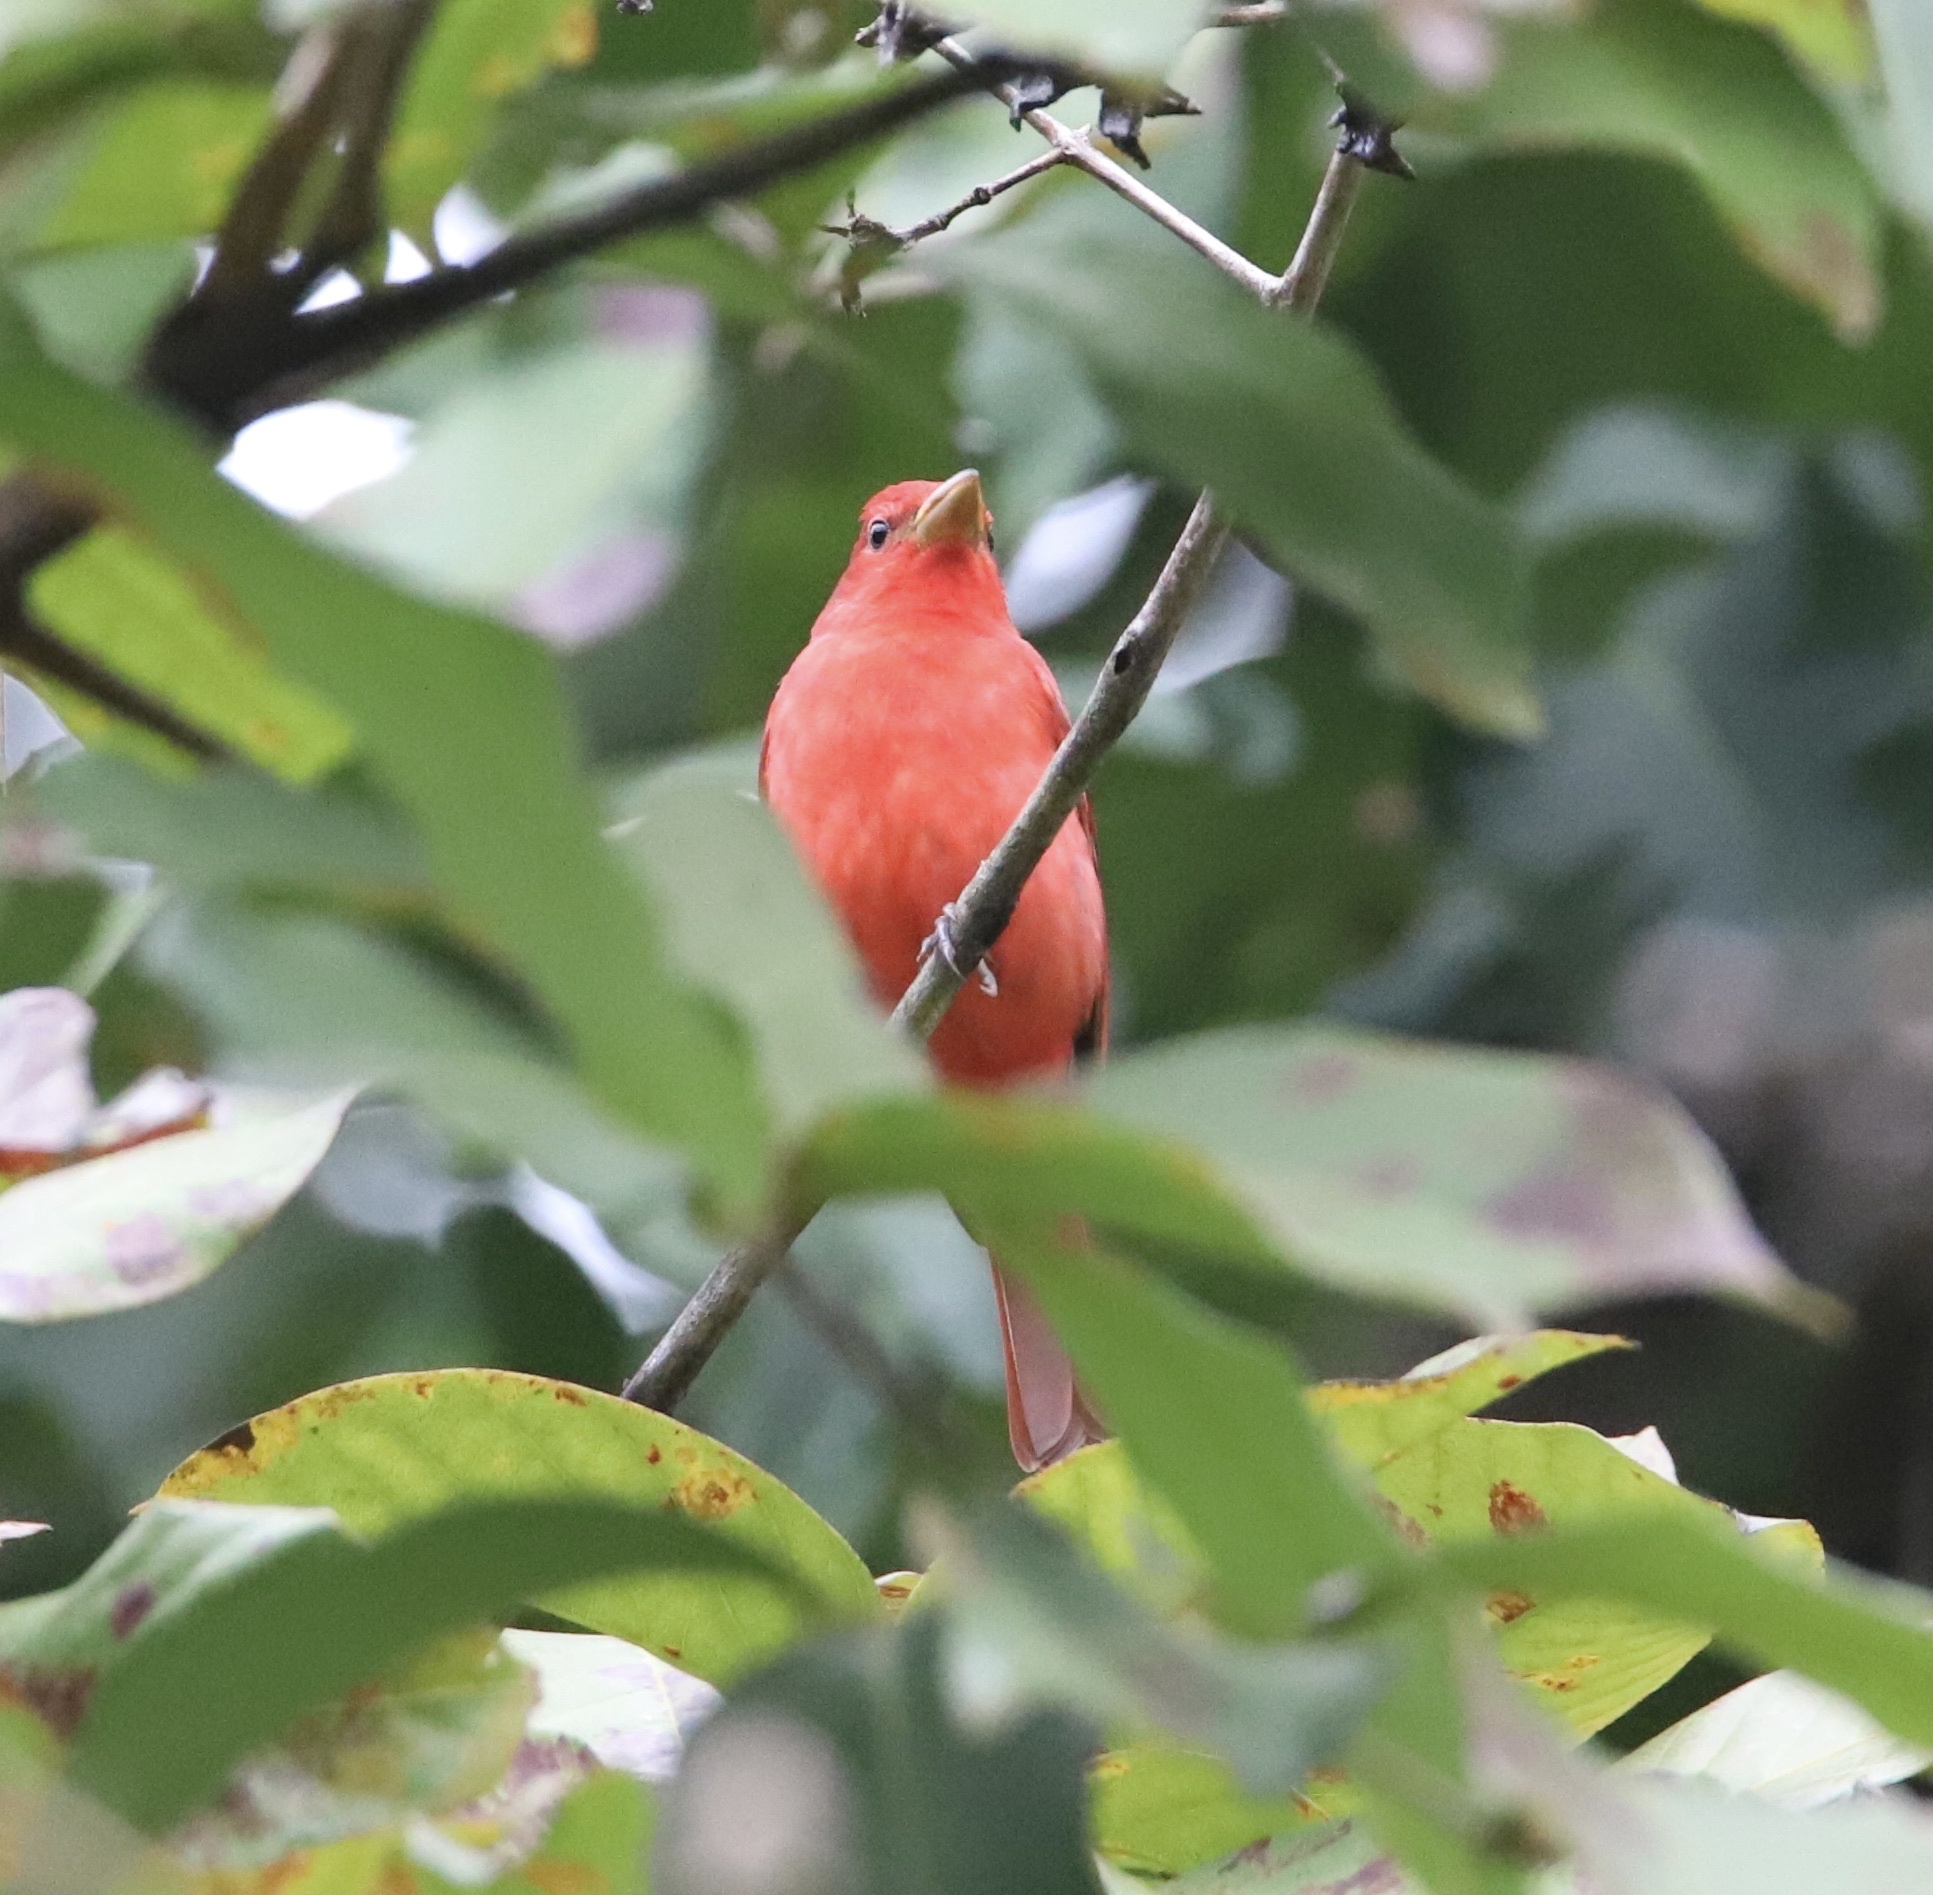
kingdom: Animalia
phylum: Chordata
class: Aves
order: Passeriformes
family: Cardinalidae
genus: Piranga
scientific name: Piranga rubra
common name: Summer tanager
